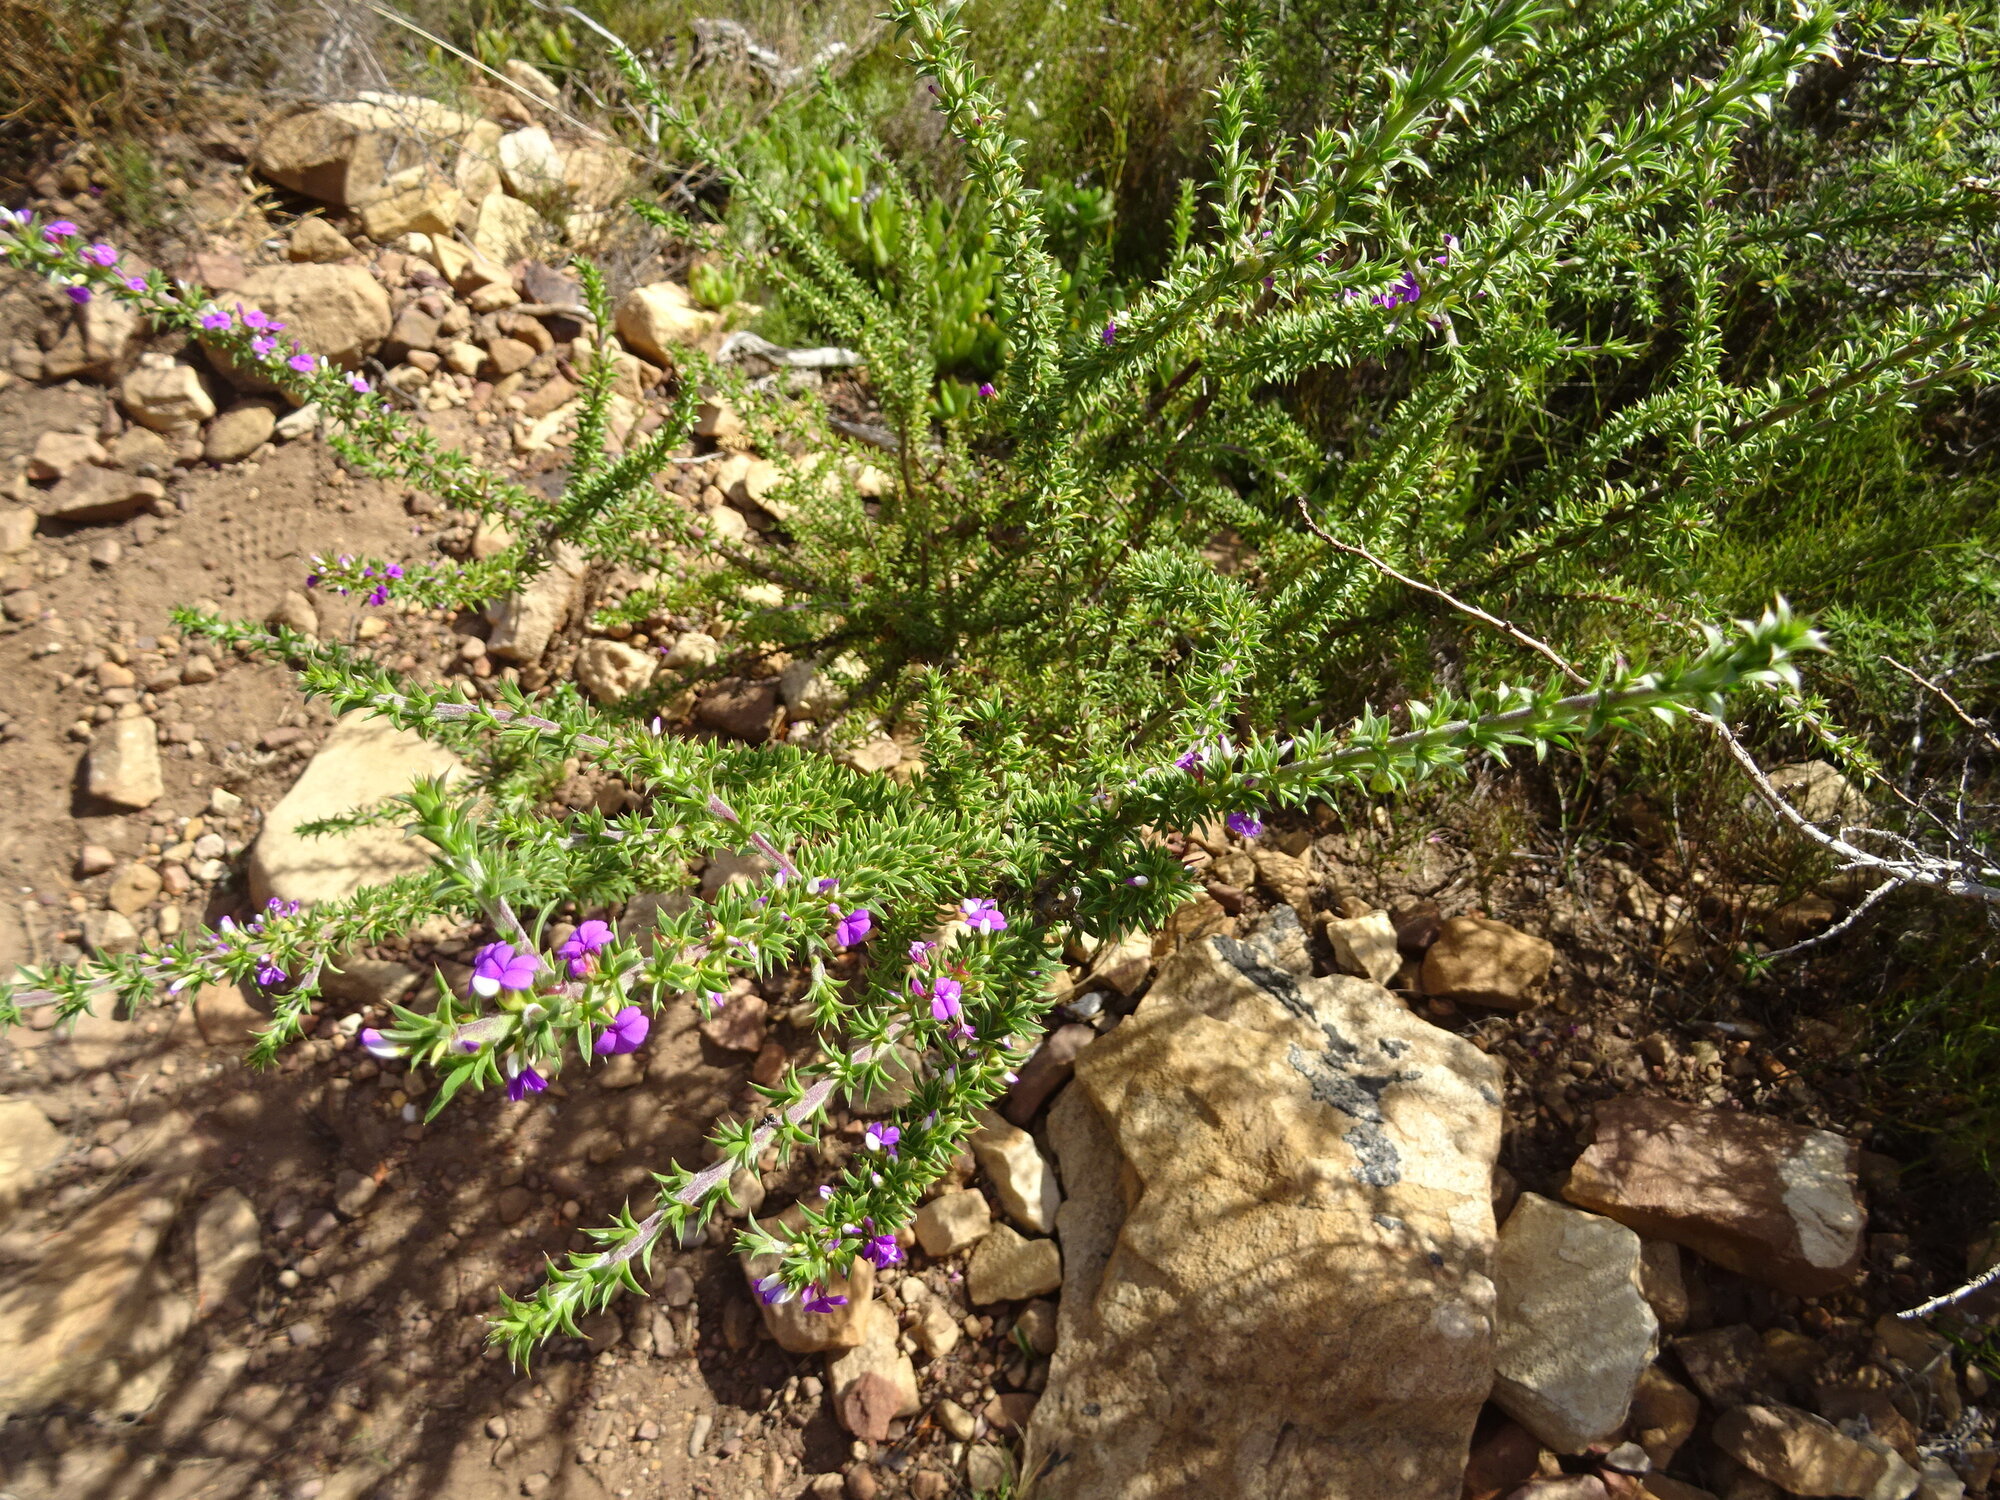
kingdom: Plantae
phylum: Tracheophyta
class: Magnoliopsida
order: Fabales
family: Polygalaceae
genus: Muraltia
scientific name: Muraltia heisteria
